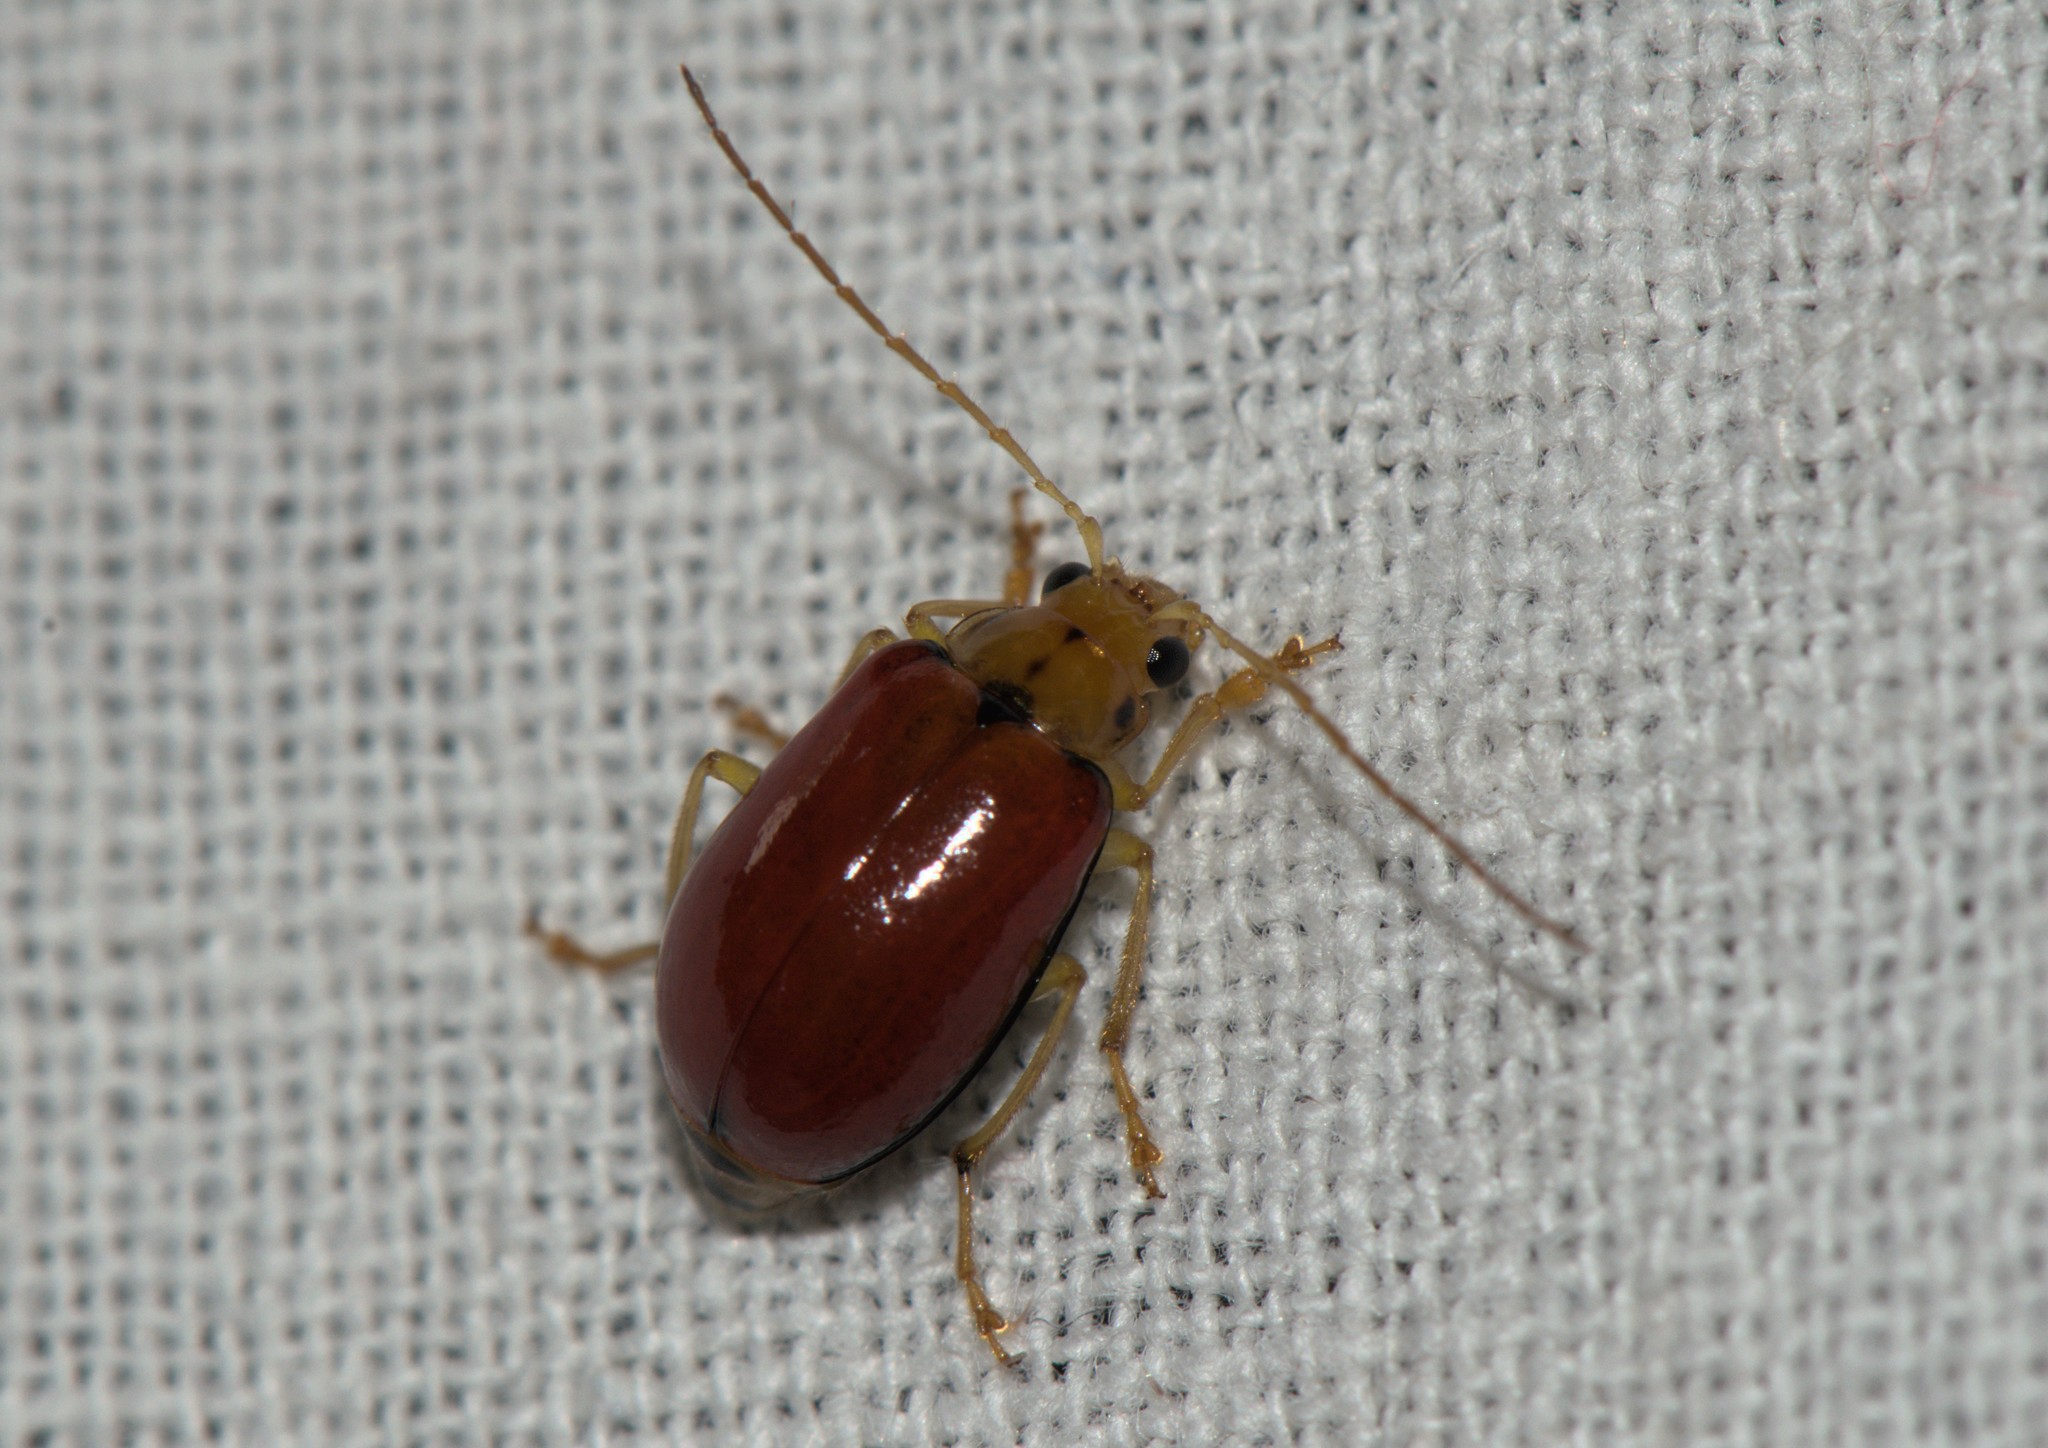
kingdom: Animalia
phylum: Arthropoda
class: Insecta
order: Coleoptera
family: Chrysomelidae
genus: Macrima
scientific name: Macrima
